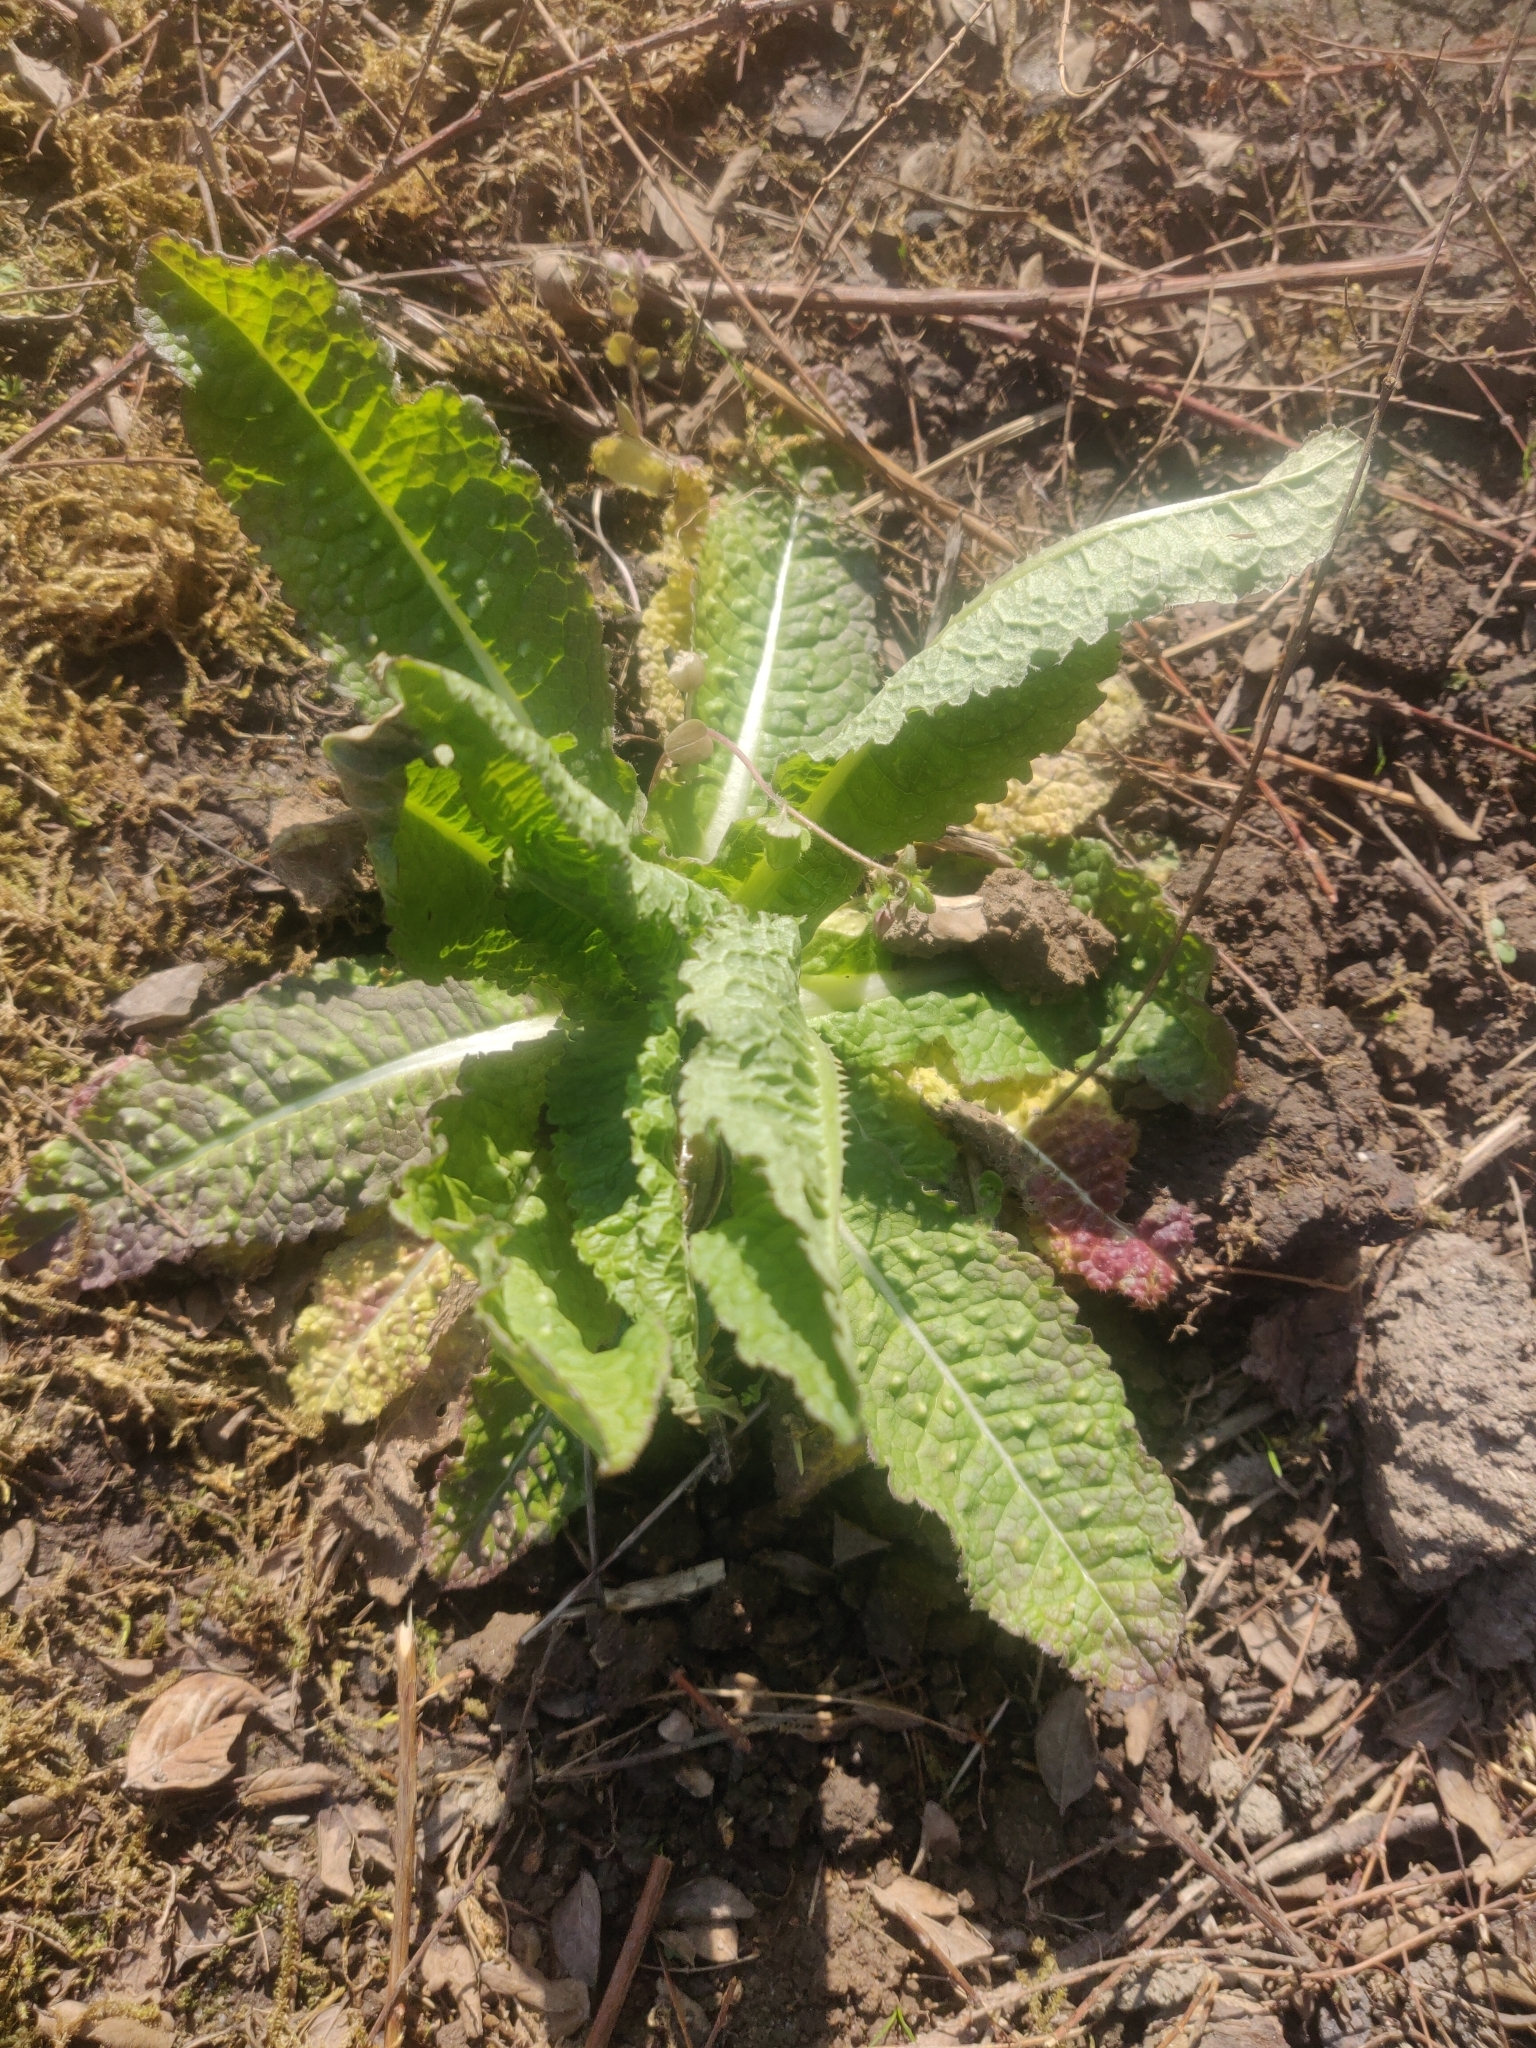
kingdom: Plantae
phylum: Tracheophyta
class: Magnoliopsida
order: Dipsacales
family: Caprifoliaceae
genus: Dipsacus
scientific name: Dipsacus fullonum
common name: Teasel
